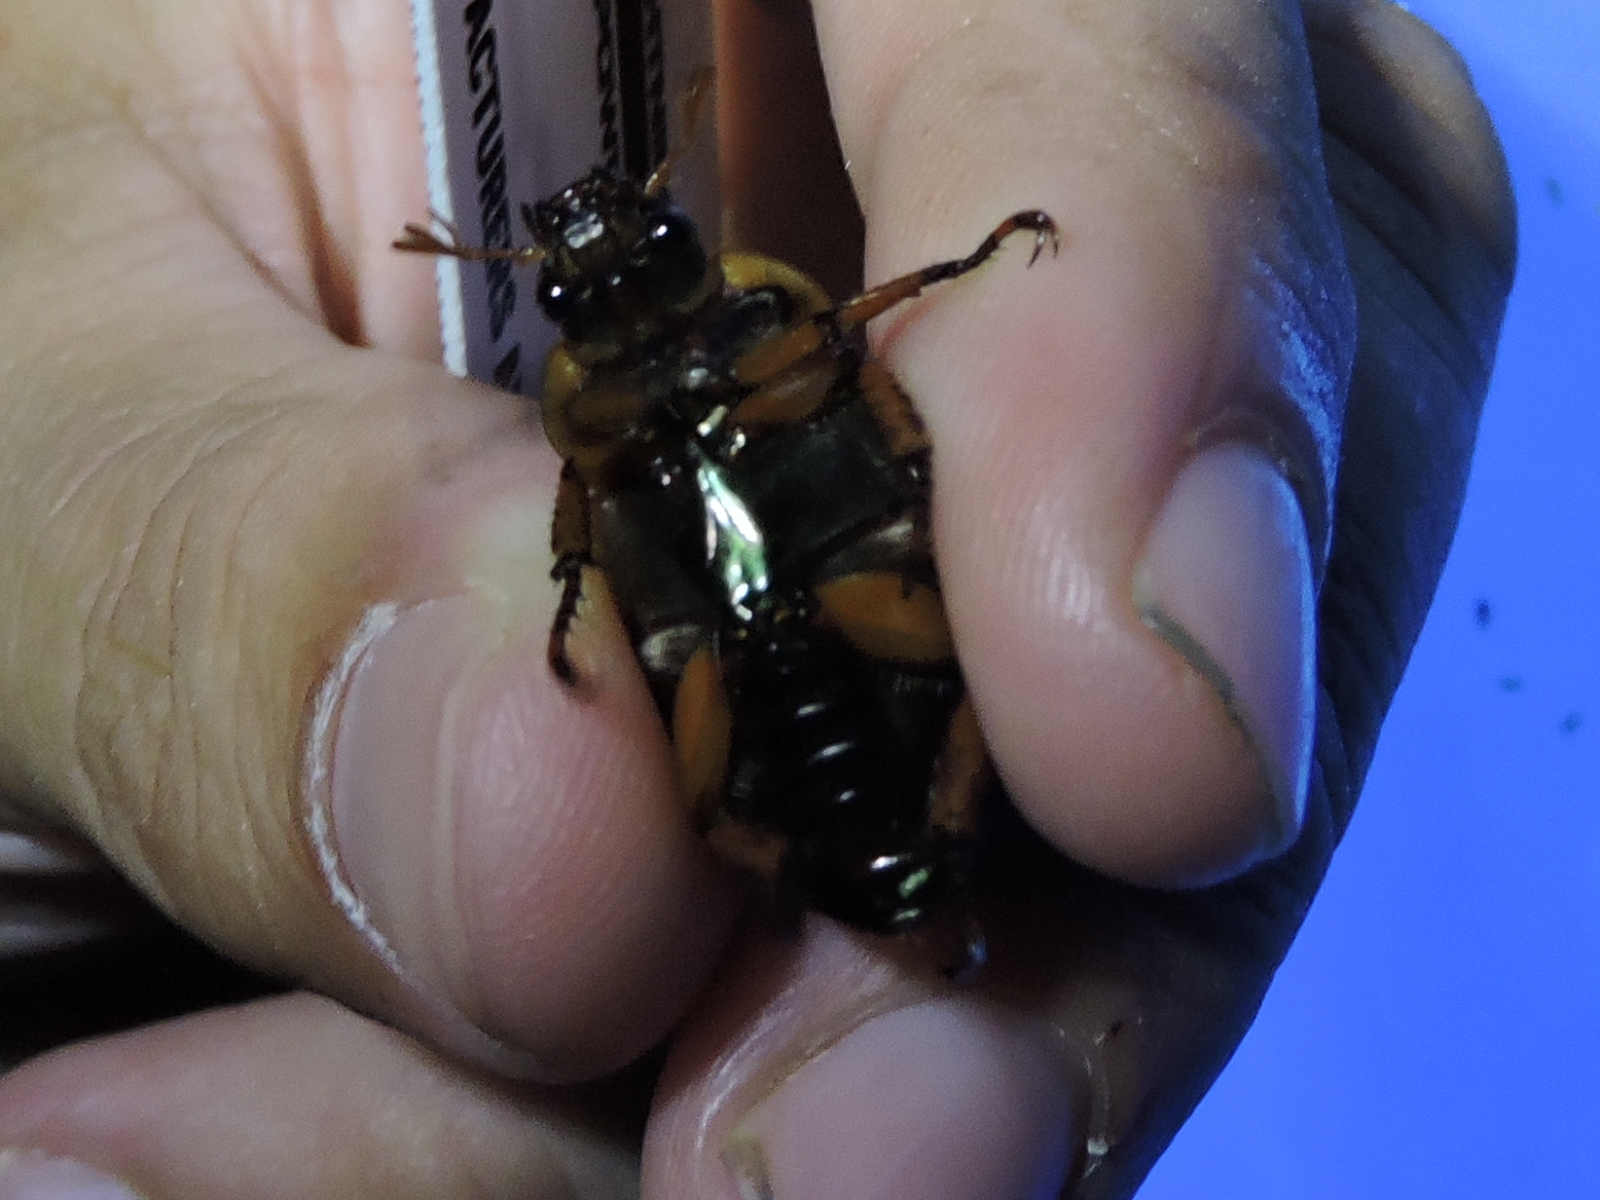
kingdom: Animalia
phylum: Arthropoda
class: Insecta
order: Coleoptera
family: Scarabaeidae
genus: Pelidnota
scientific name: Pelidnota punctata
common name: Grapevine beetle
